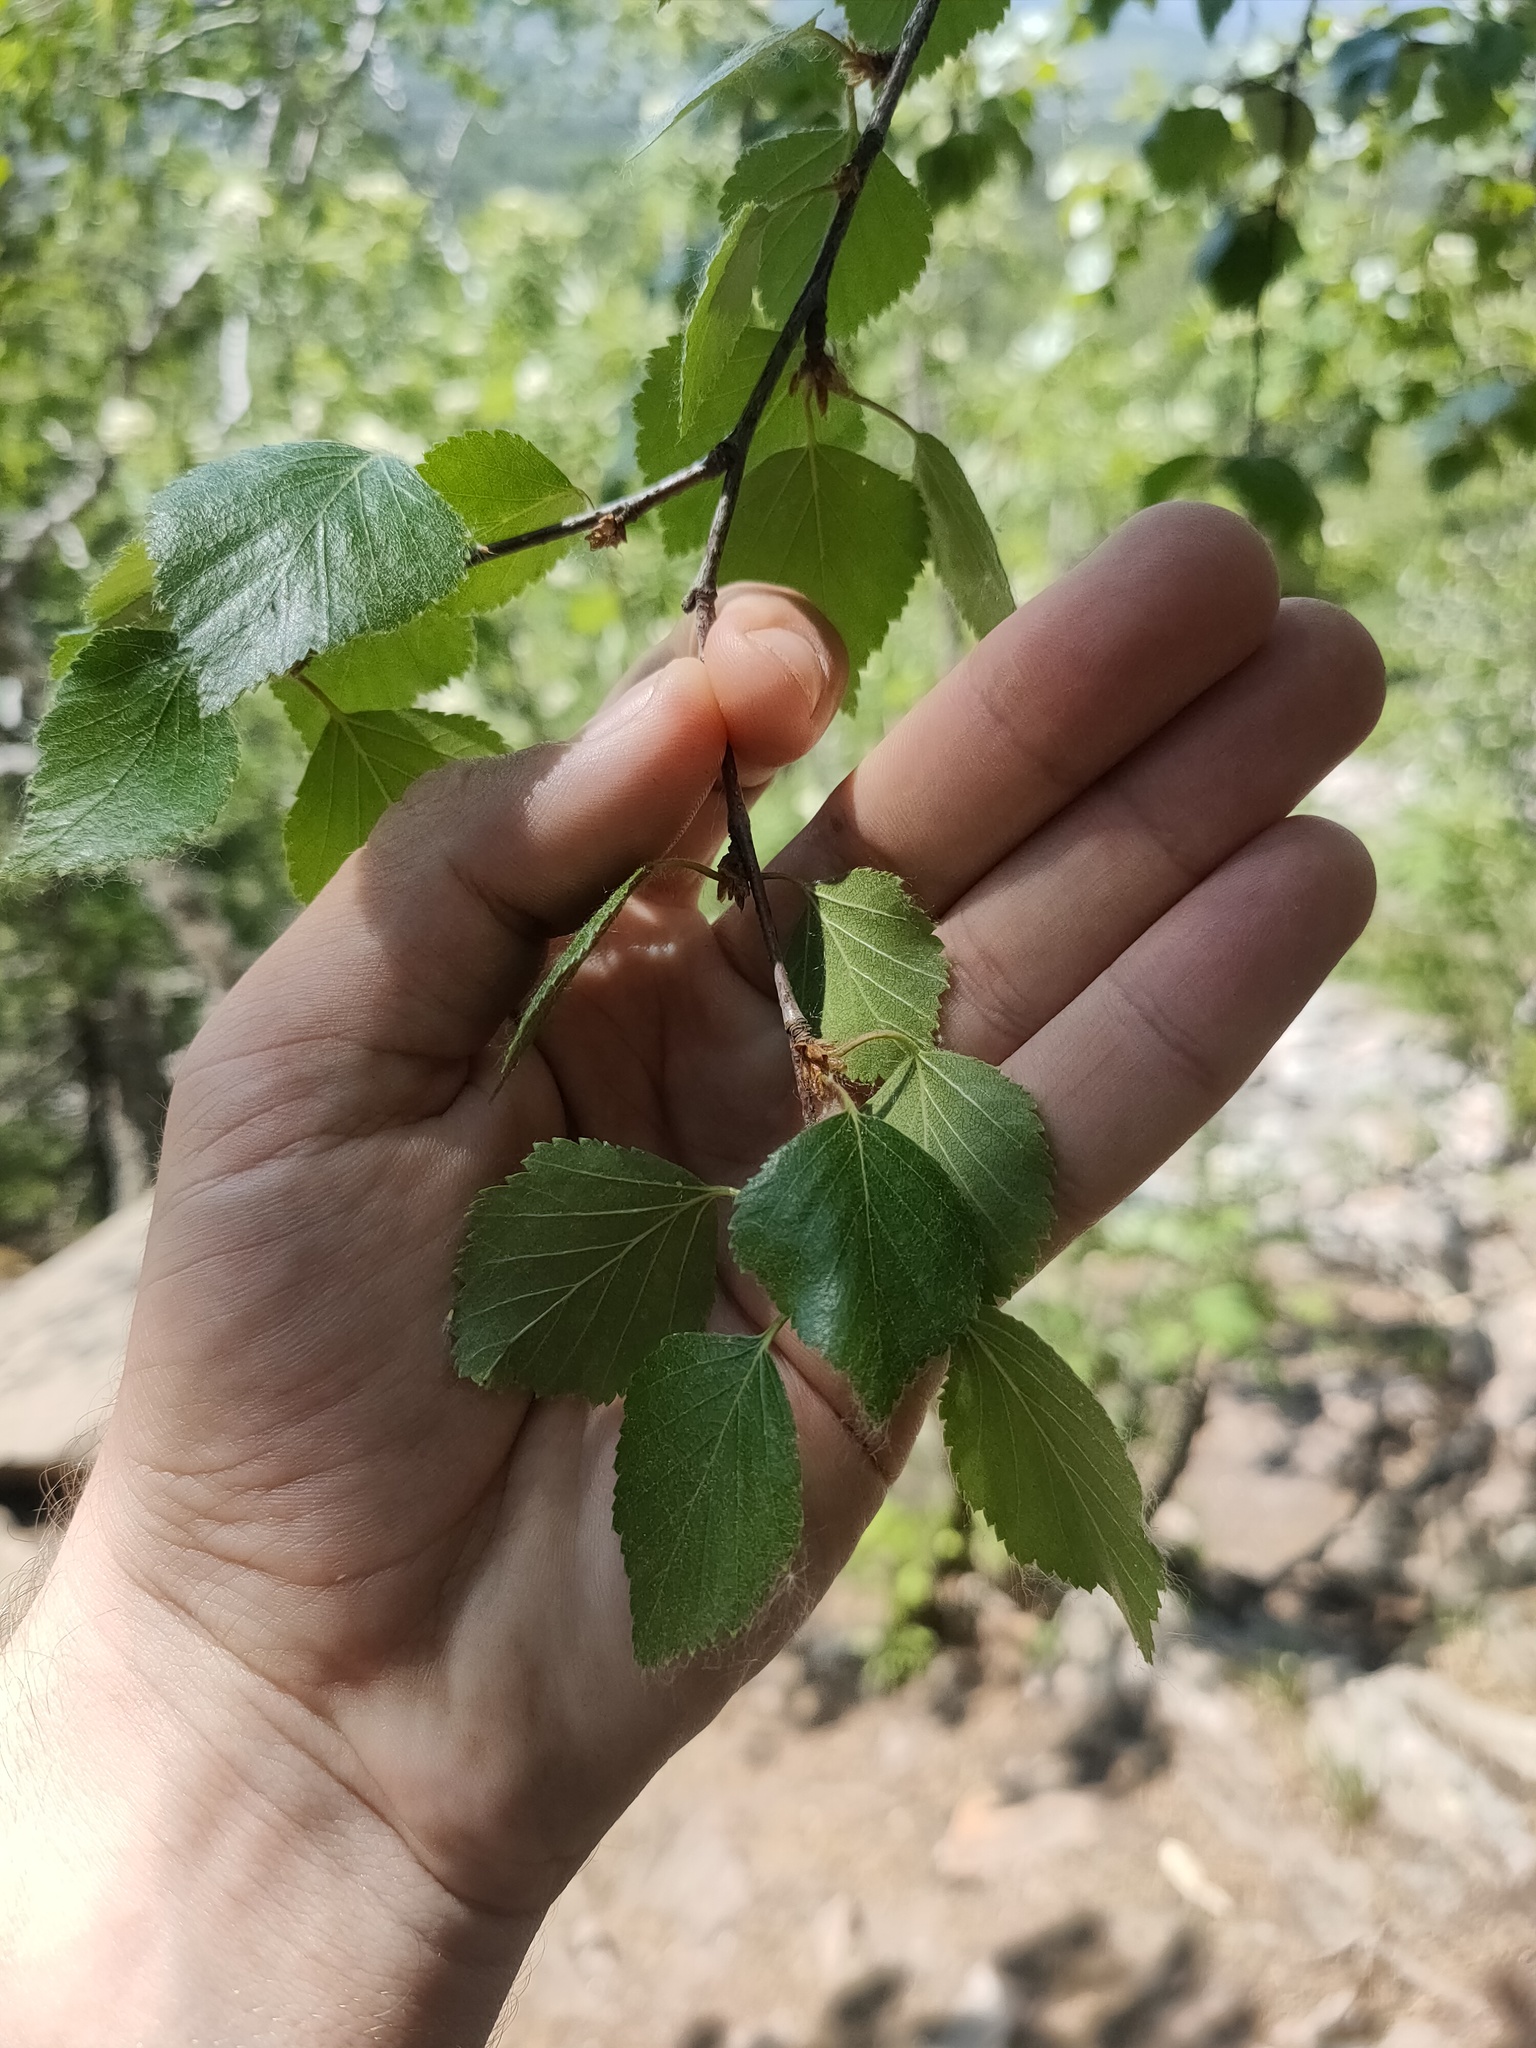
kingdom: Plantae
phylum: Tracheophyta
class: Magnoliopsida
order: Fagales
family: Betulaceae
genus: Betula
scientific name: Betula pendula
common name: Silver birch
